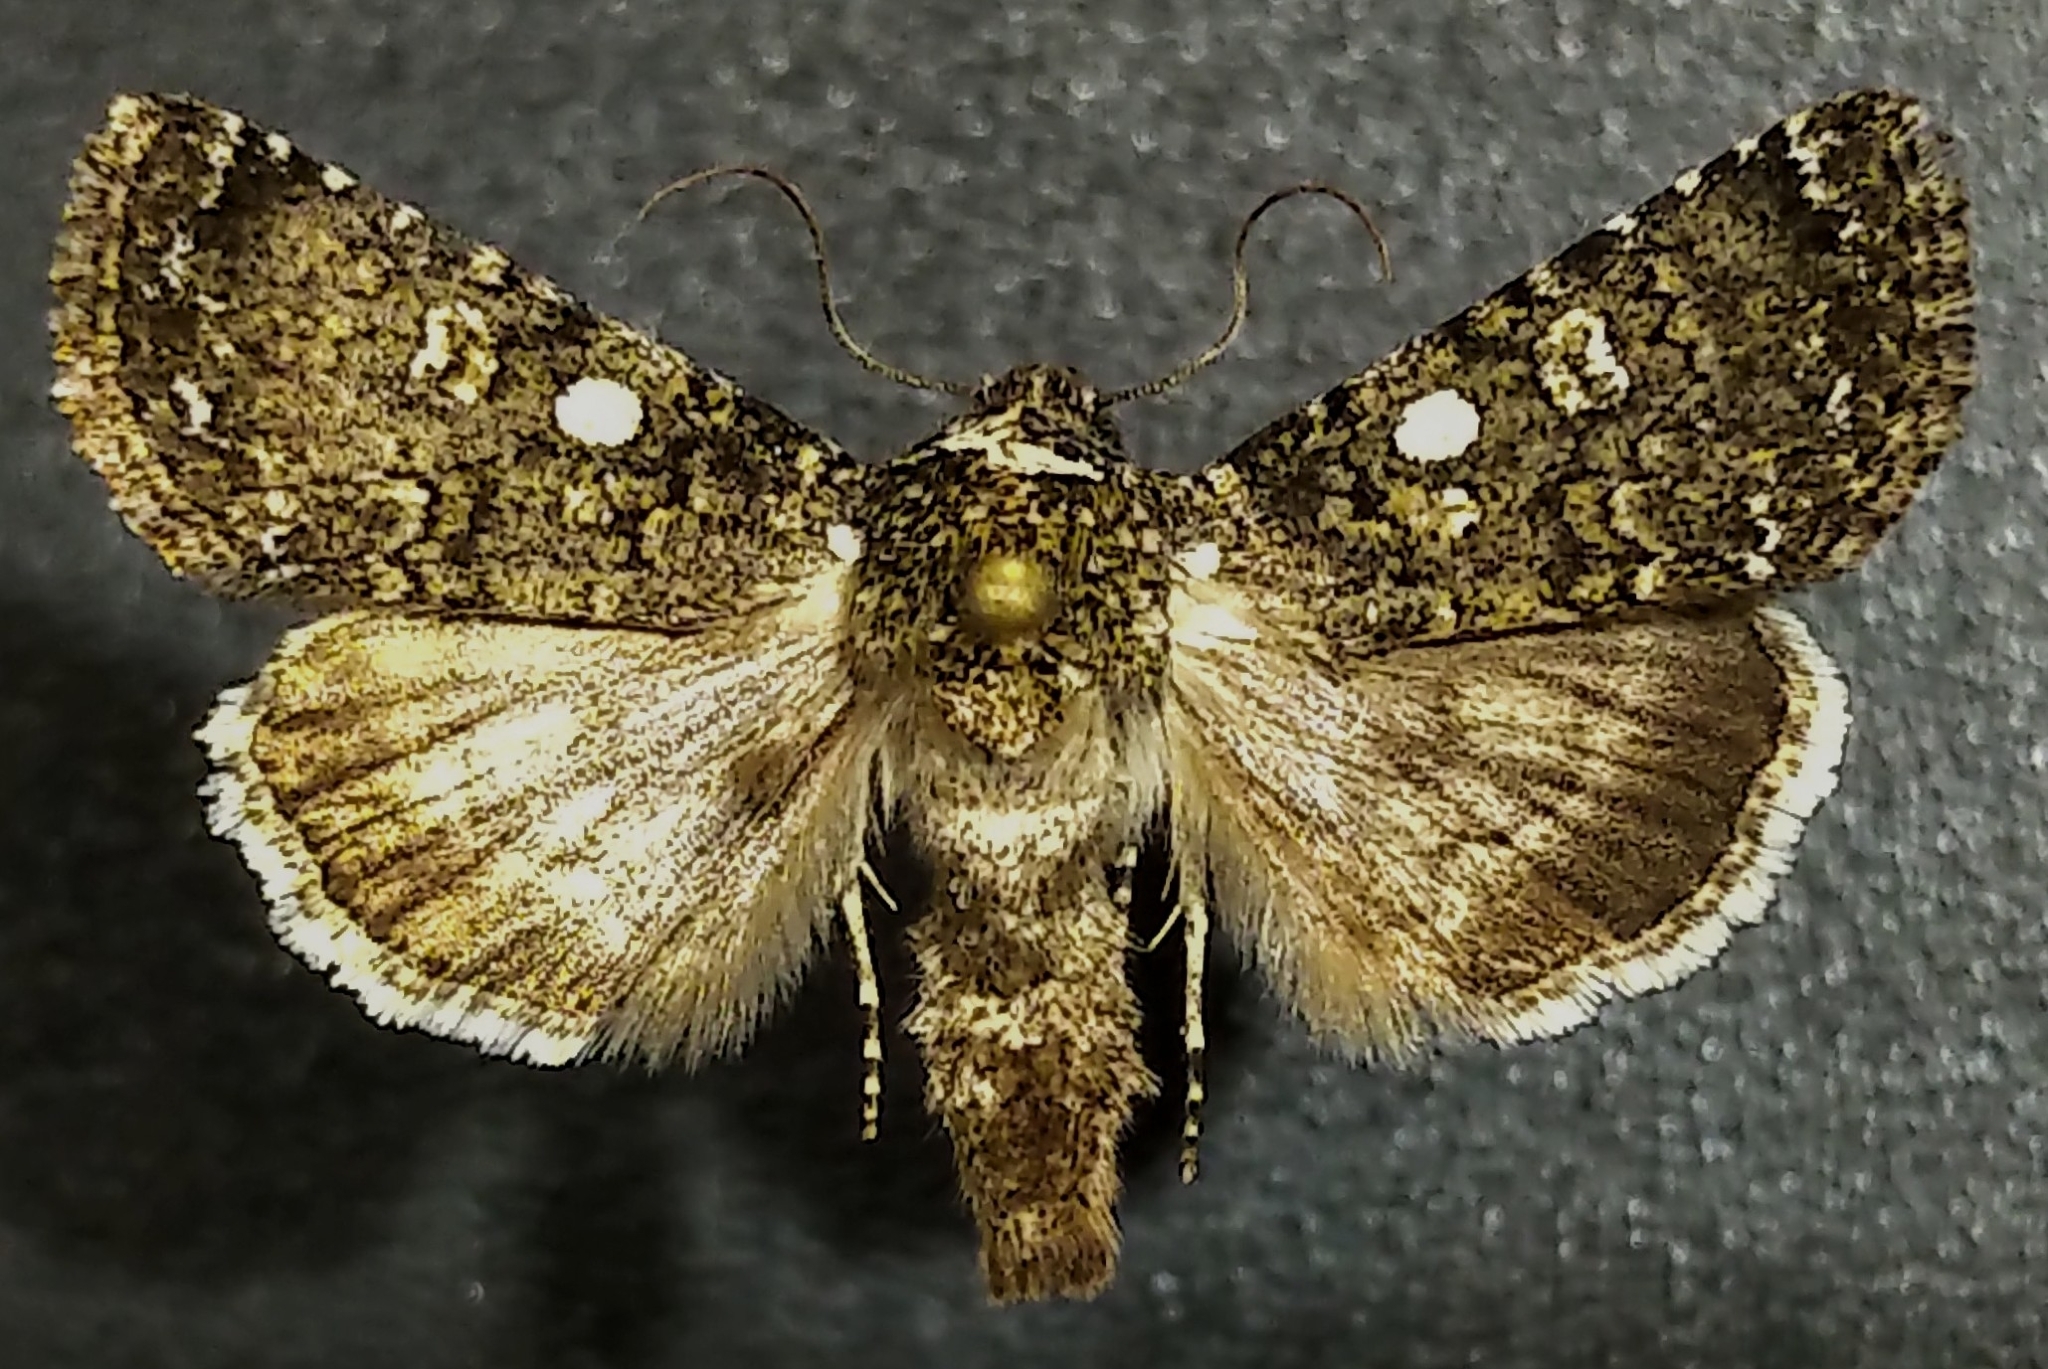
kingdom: Animalia
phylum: Arthropoda
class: Insecta
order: Lepidoptera
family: Noctuidae
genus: Sympistis
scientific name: Sympistis viriditincta
